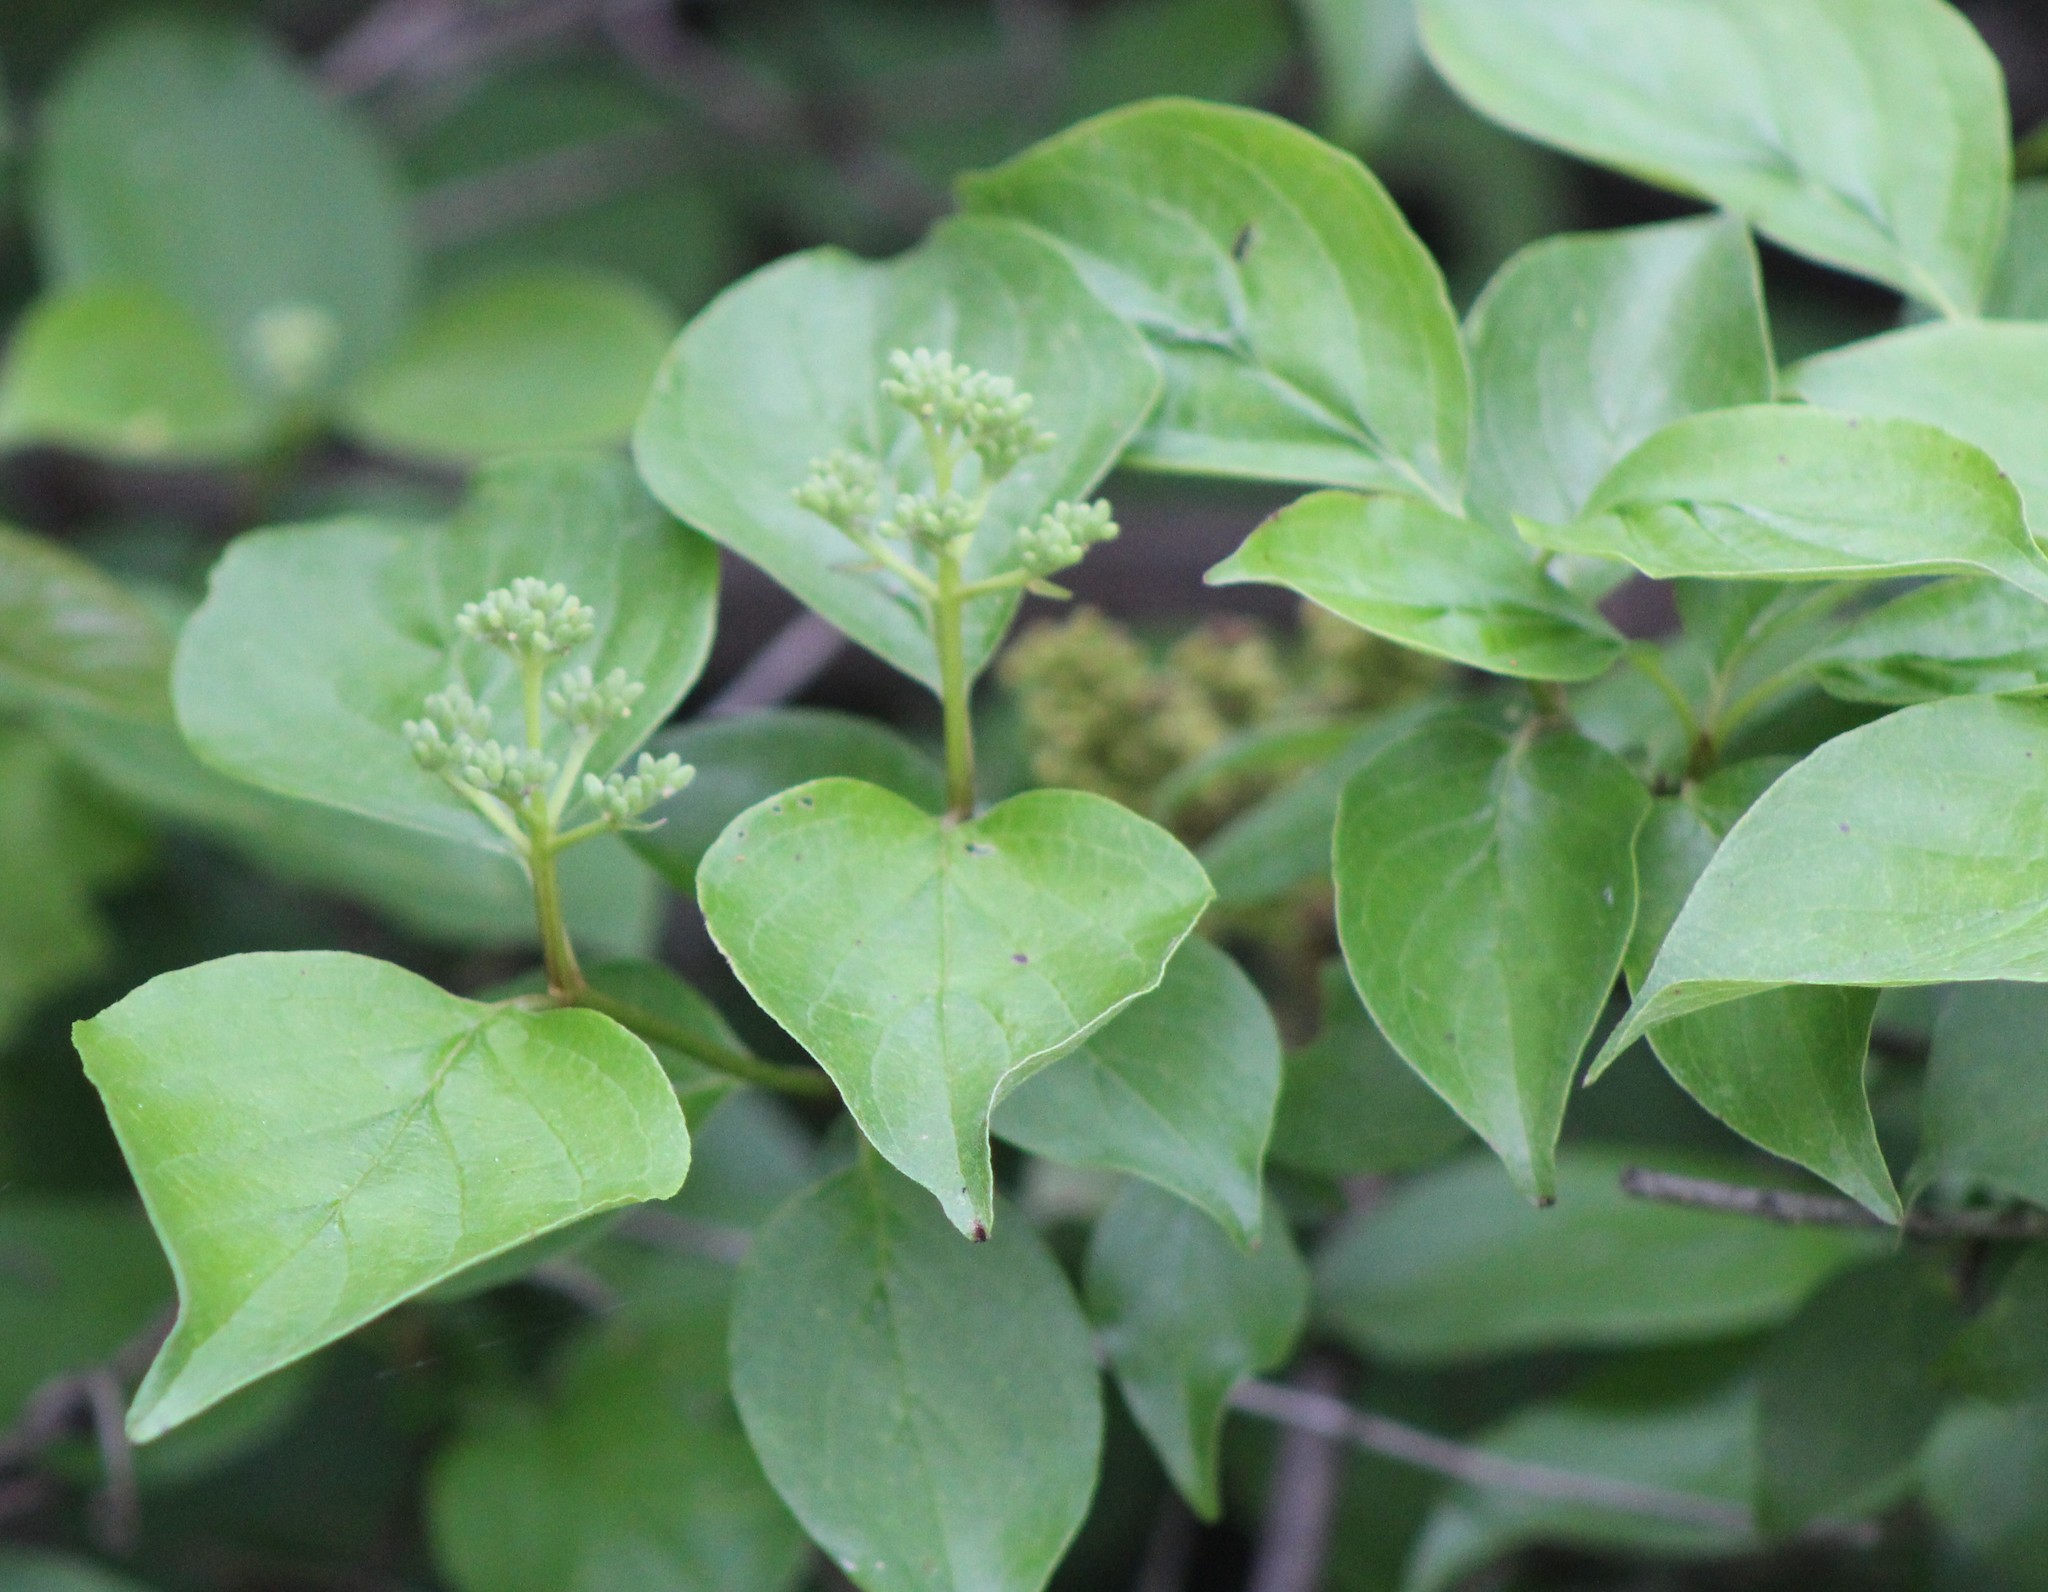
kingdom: Plantae
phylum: Tracheophyta
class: Magnoliopsida
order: Cornales
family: Cornaceae
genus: Cornus
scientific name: Cornus drummondii
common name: Rough-leaf dogwood
